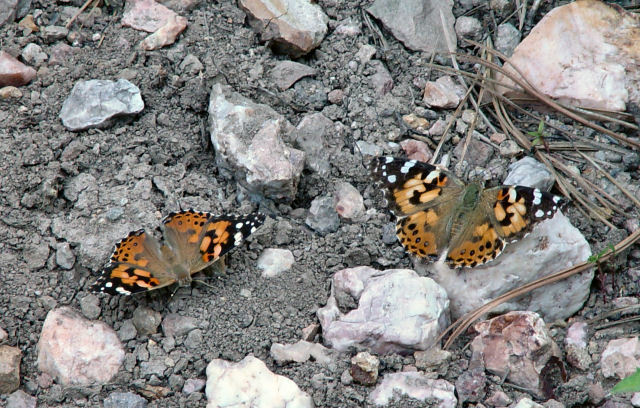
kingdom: Animalia
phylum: Arthropoda
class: Insecta
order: Lepidoptera
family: Nymphalidae
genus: Vanessa
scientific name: Vanessa cardui
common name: Painted lady
